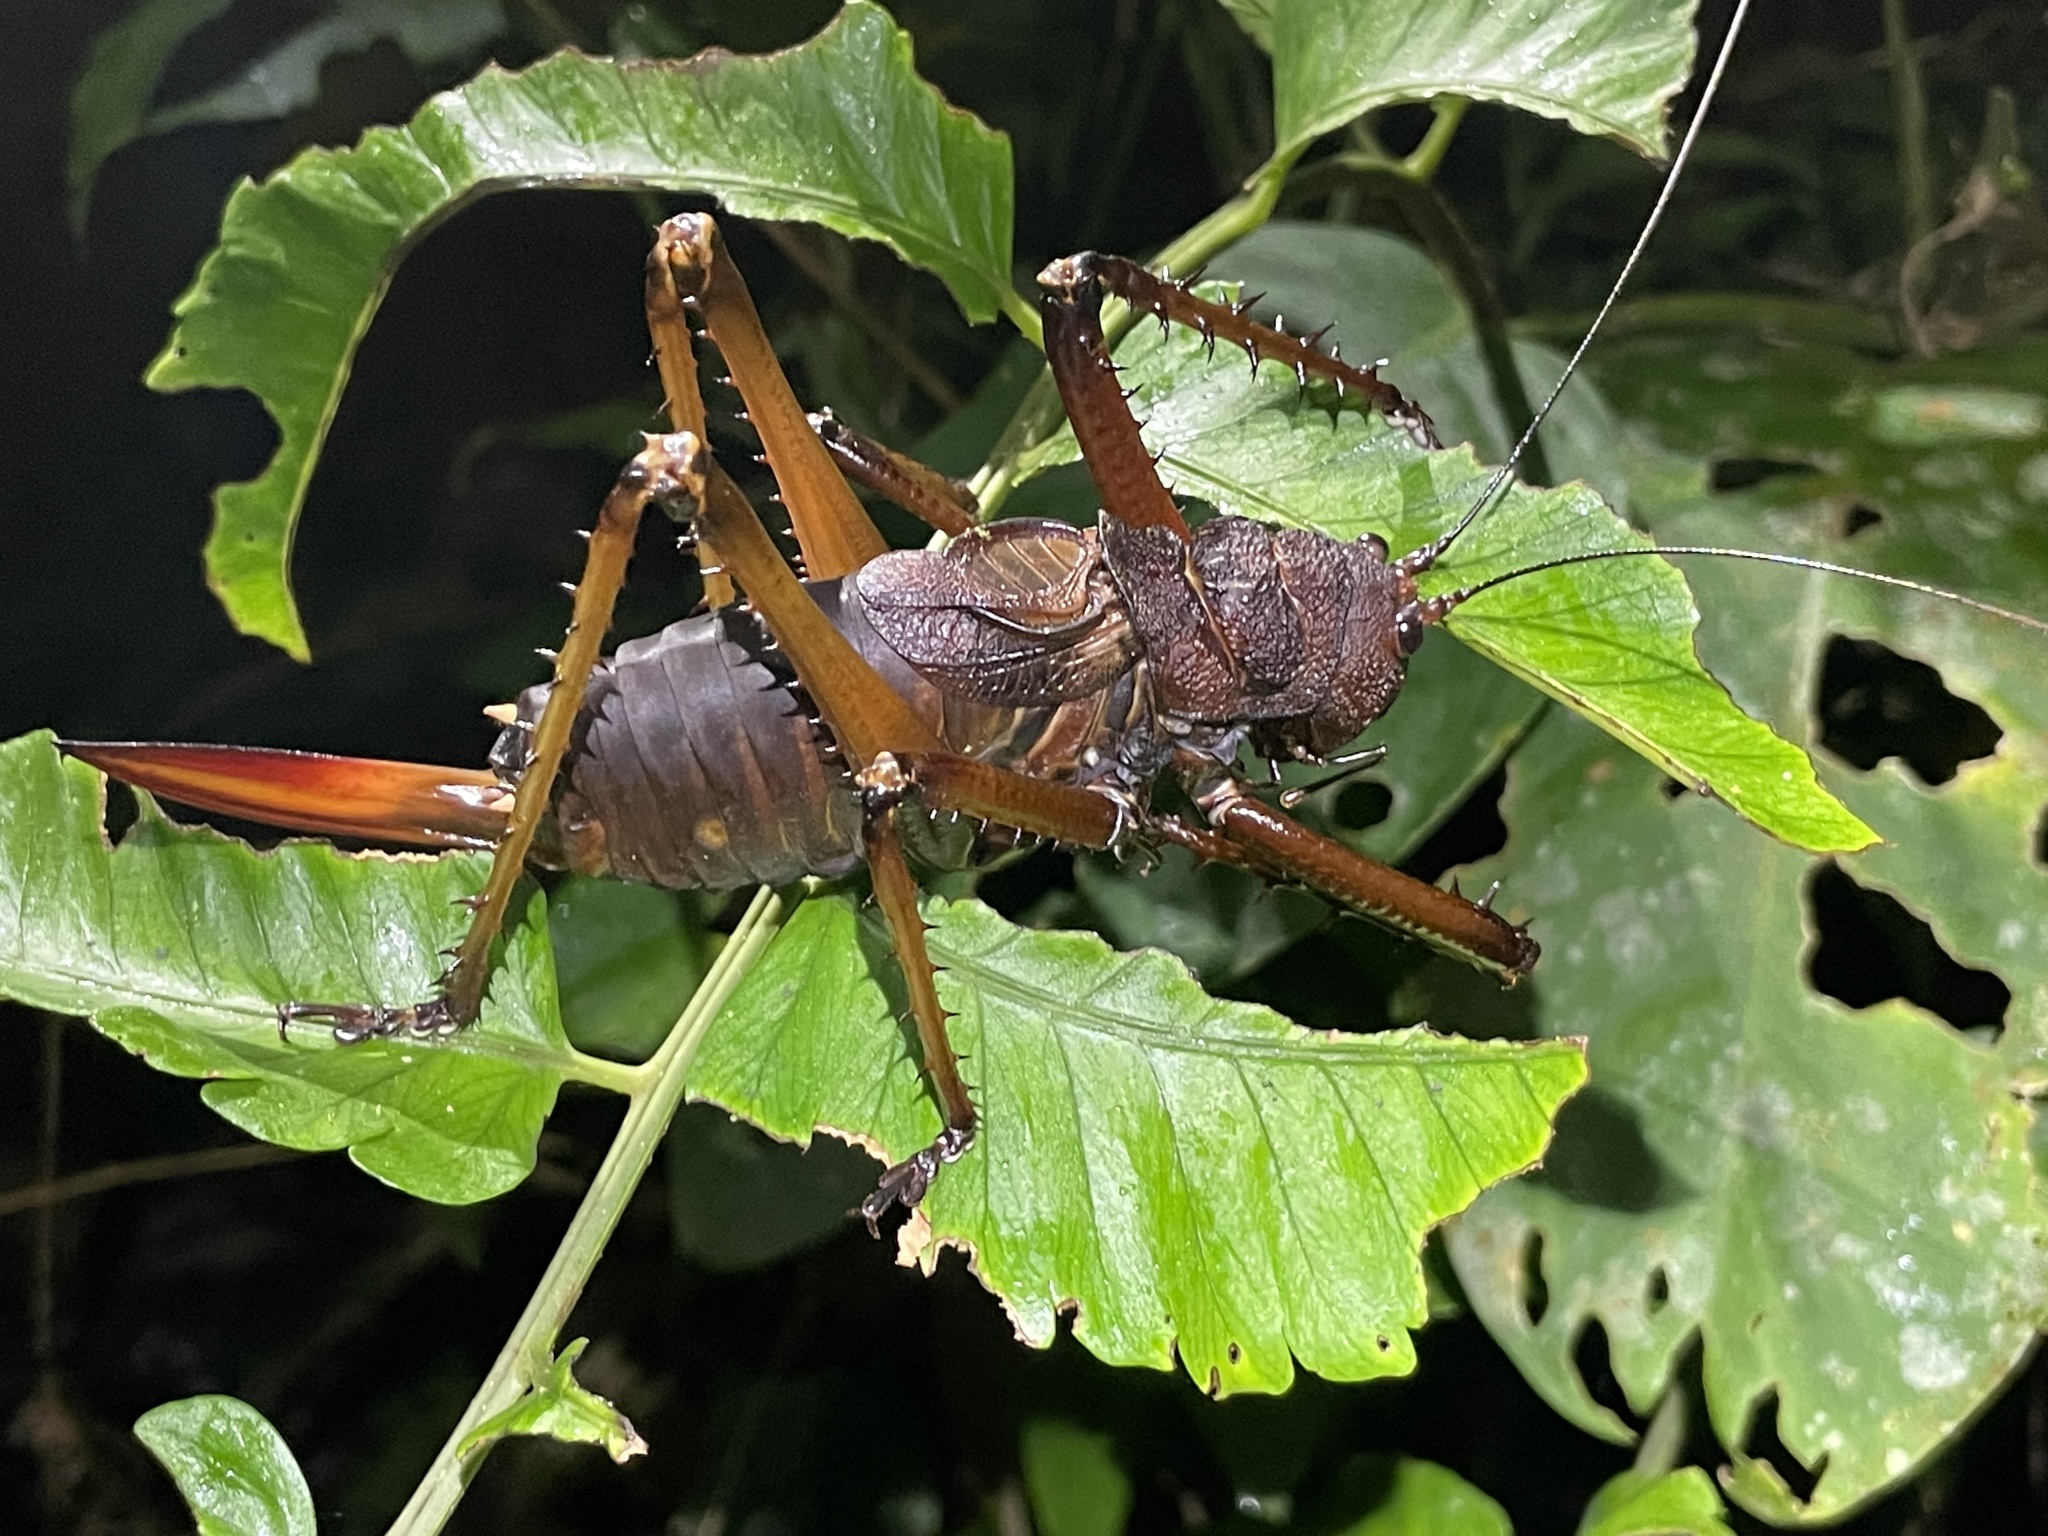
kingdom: Animalia
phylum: Arthropoda
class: Insecta
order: Orthoptera
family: Tettigoniidae
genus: Panoploscelis
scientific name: Panoploscelis specularis
